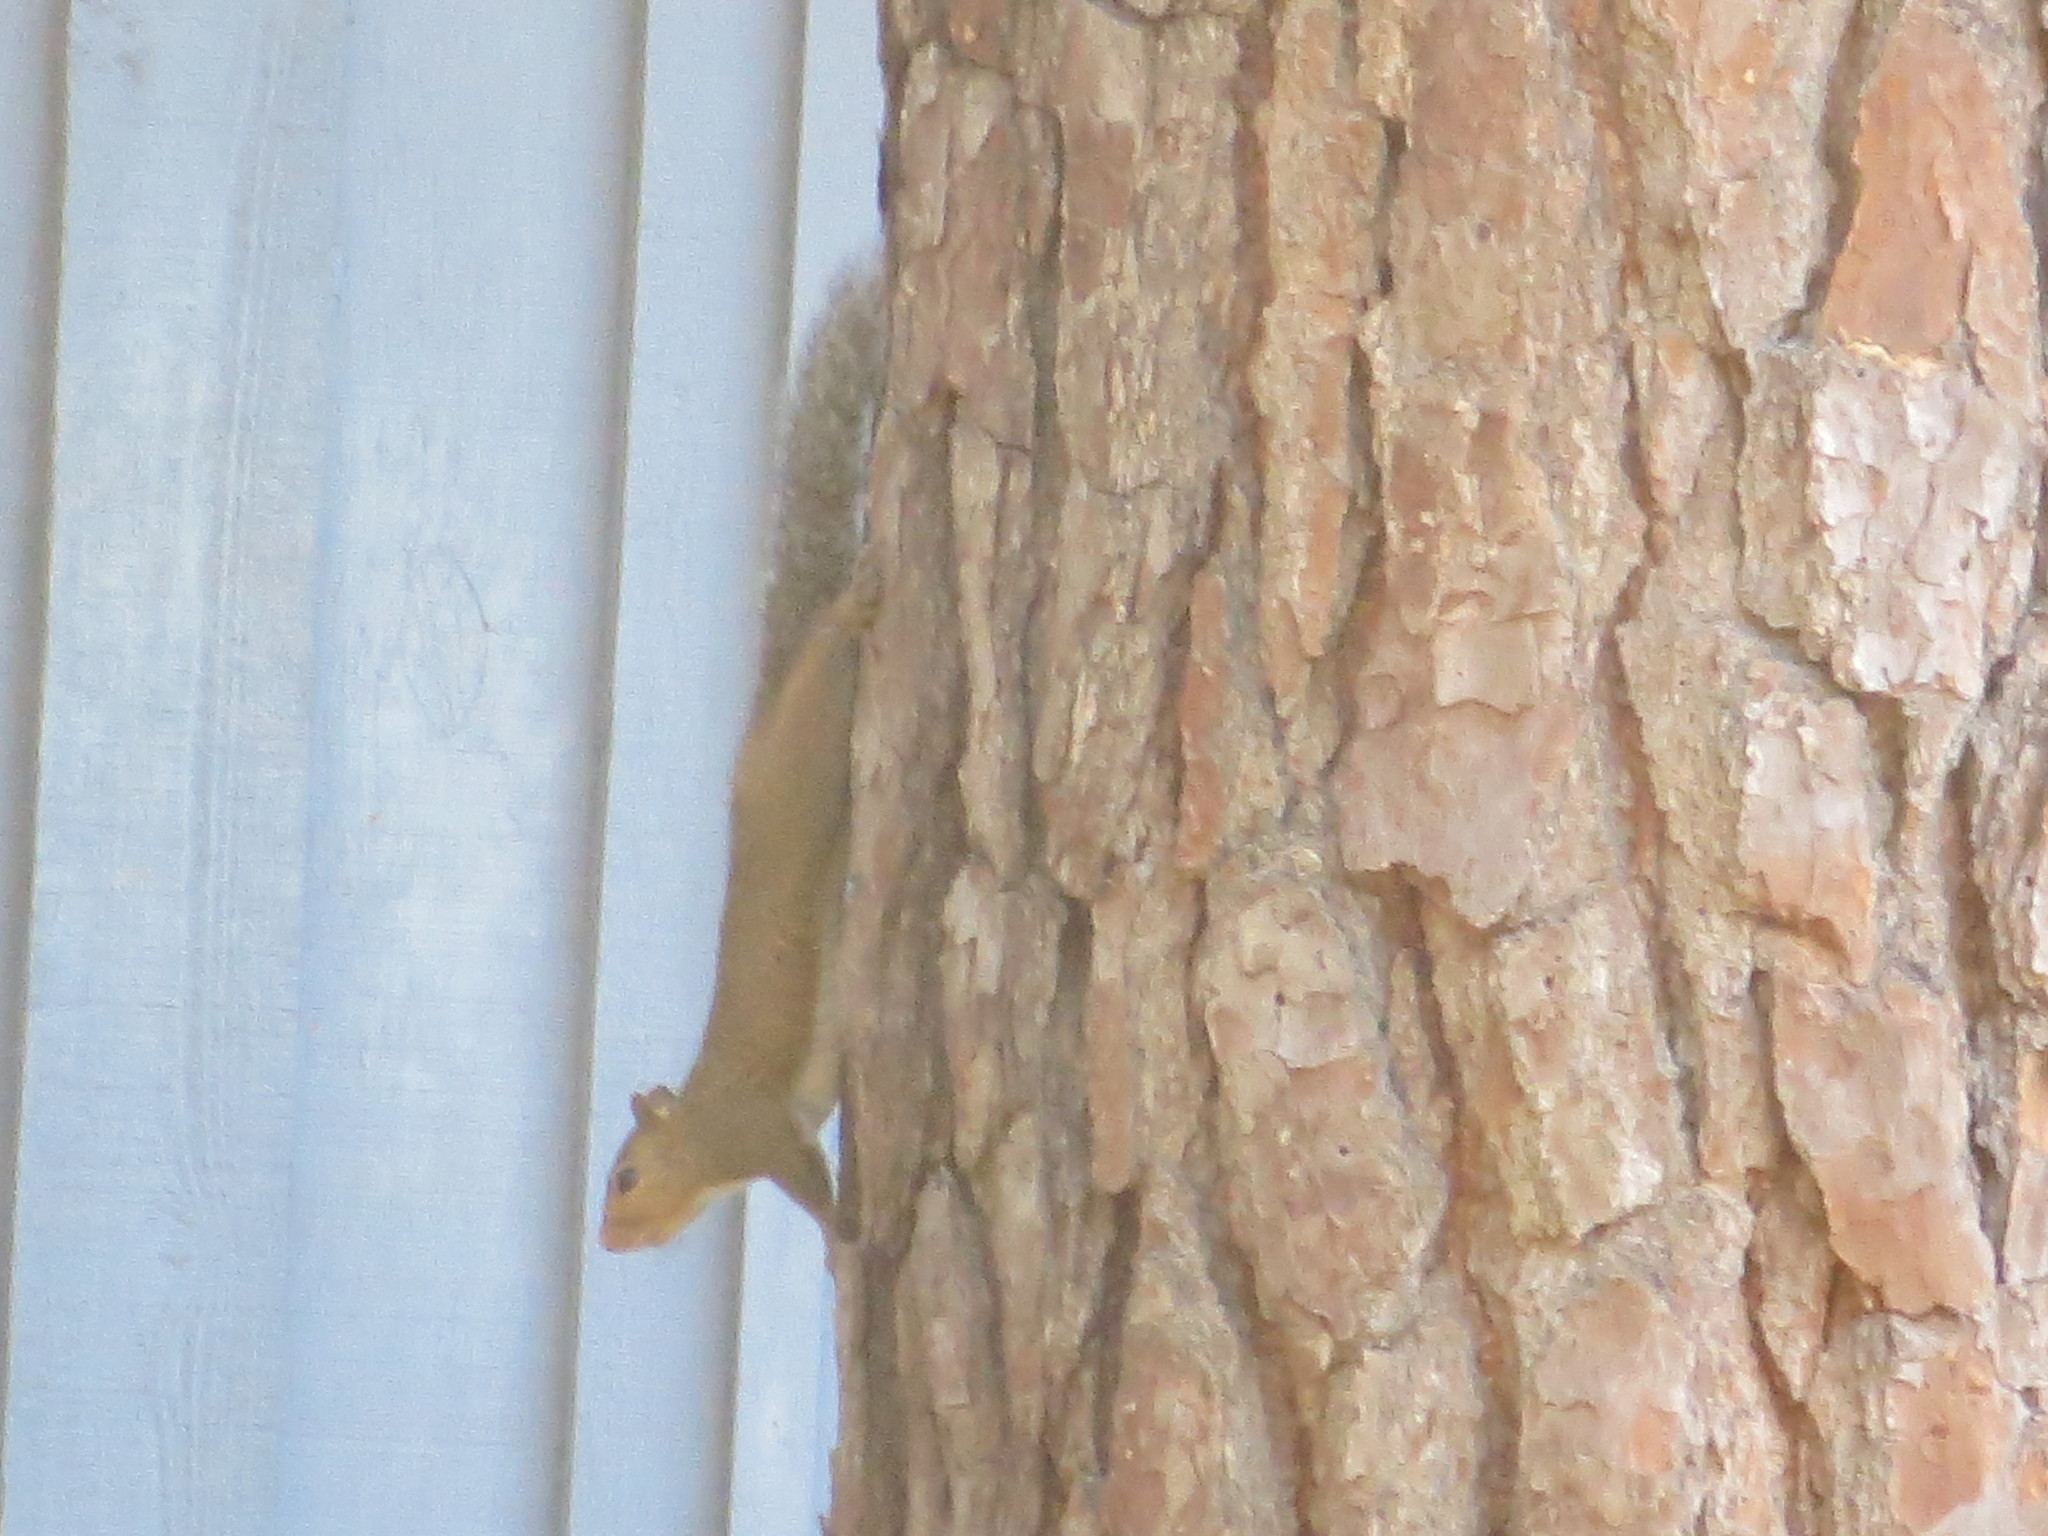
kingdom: Animalia
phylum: Chordata
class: Mammalia
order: Rodentia
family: Sciuridae
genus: Sciurus
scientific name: Sciurus carolinensis
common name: Eastern gray squirrel
